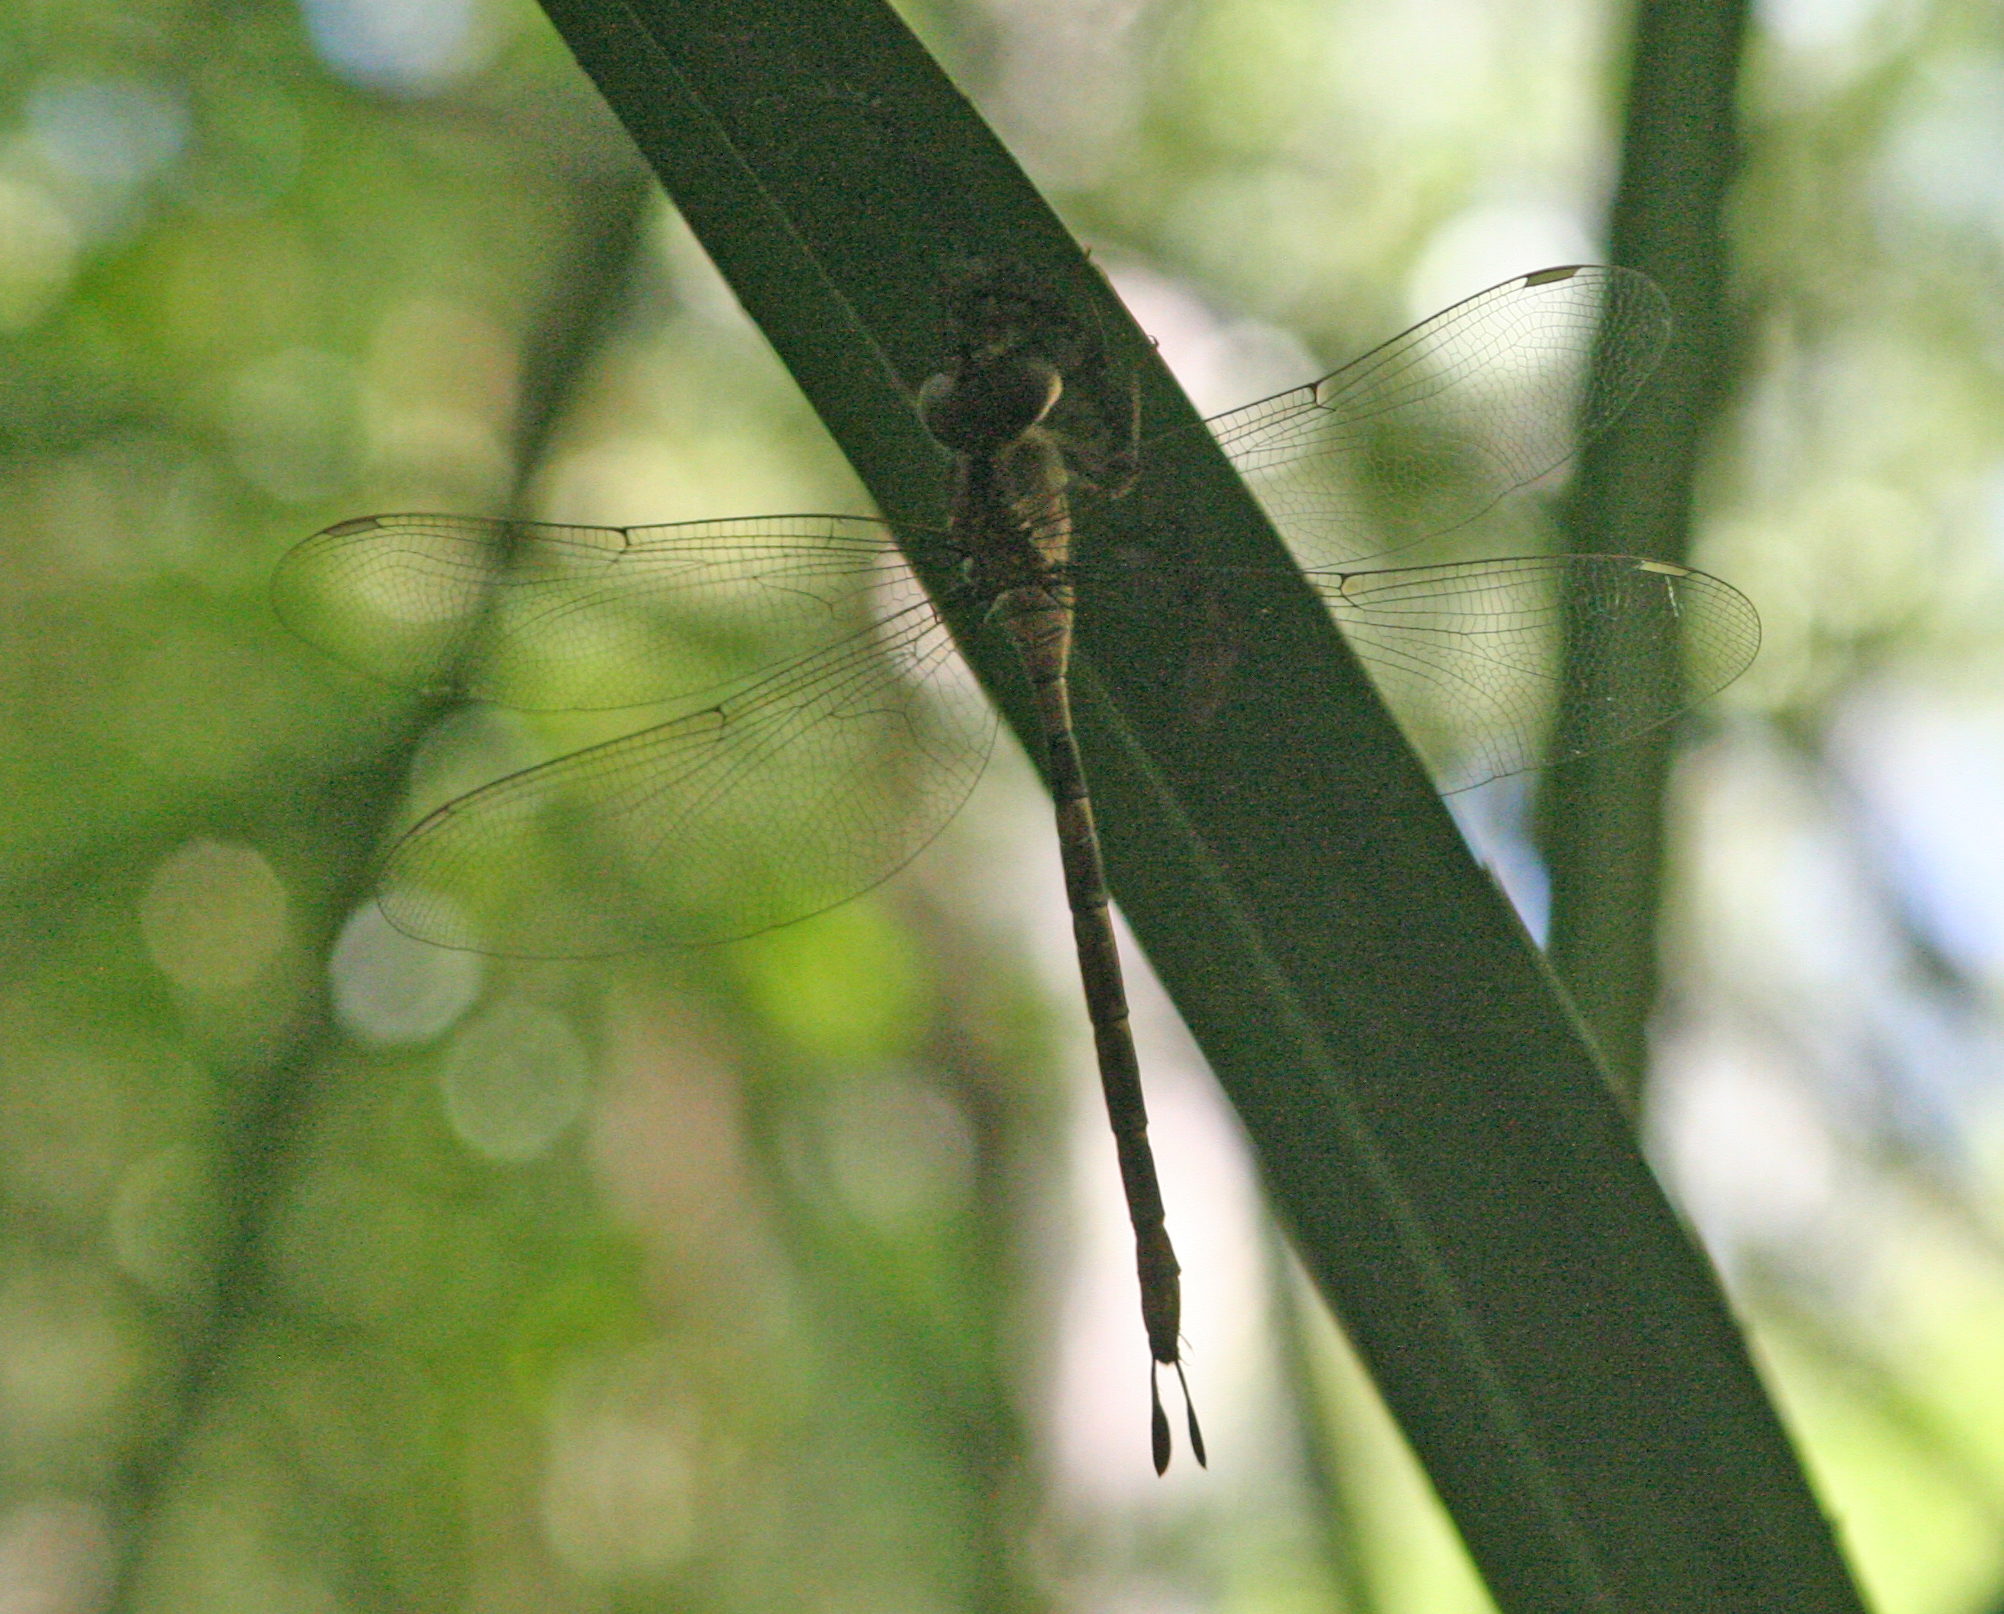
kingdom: Animalia
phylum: Arthropoda
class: Insecta
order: Odonata
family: Aeshnidae
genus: Gynacantha
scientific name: Gynacantha subinterrupta
